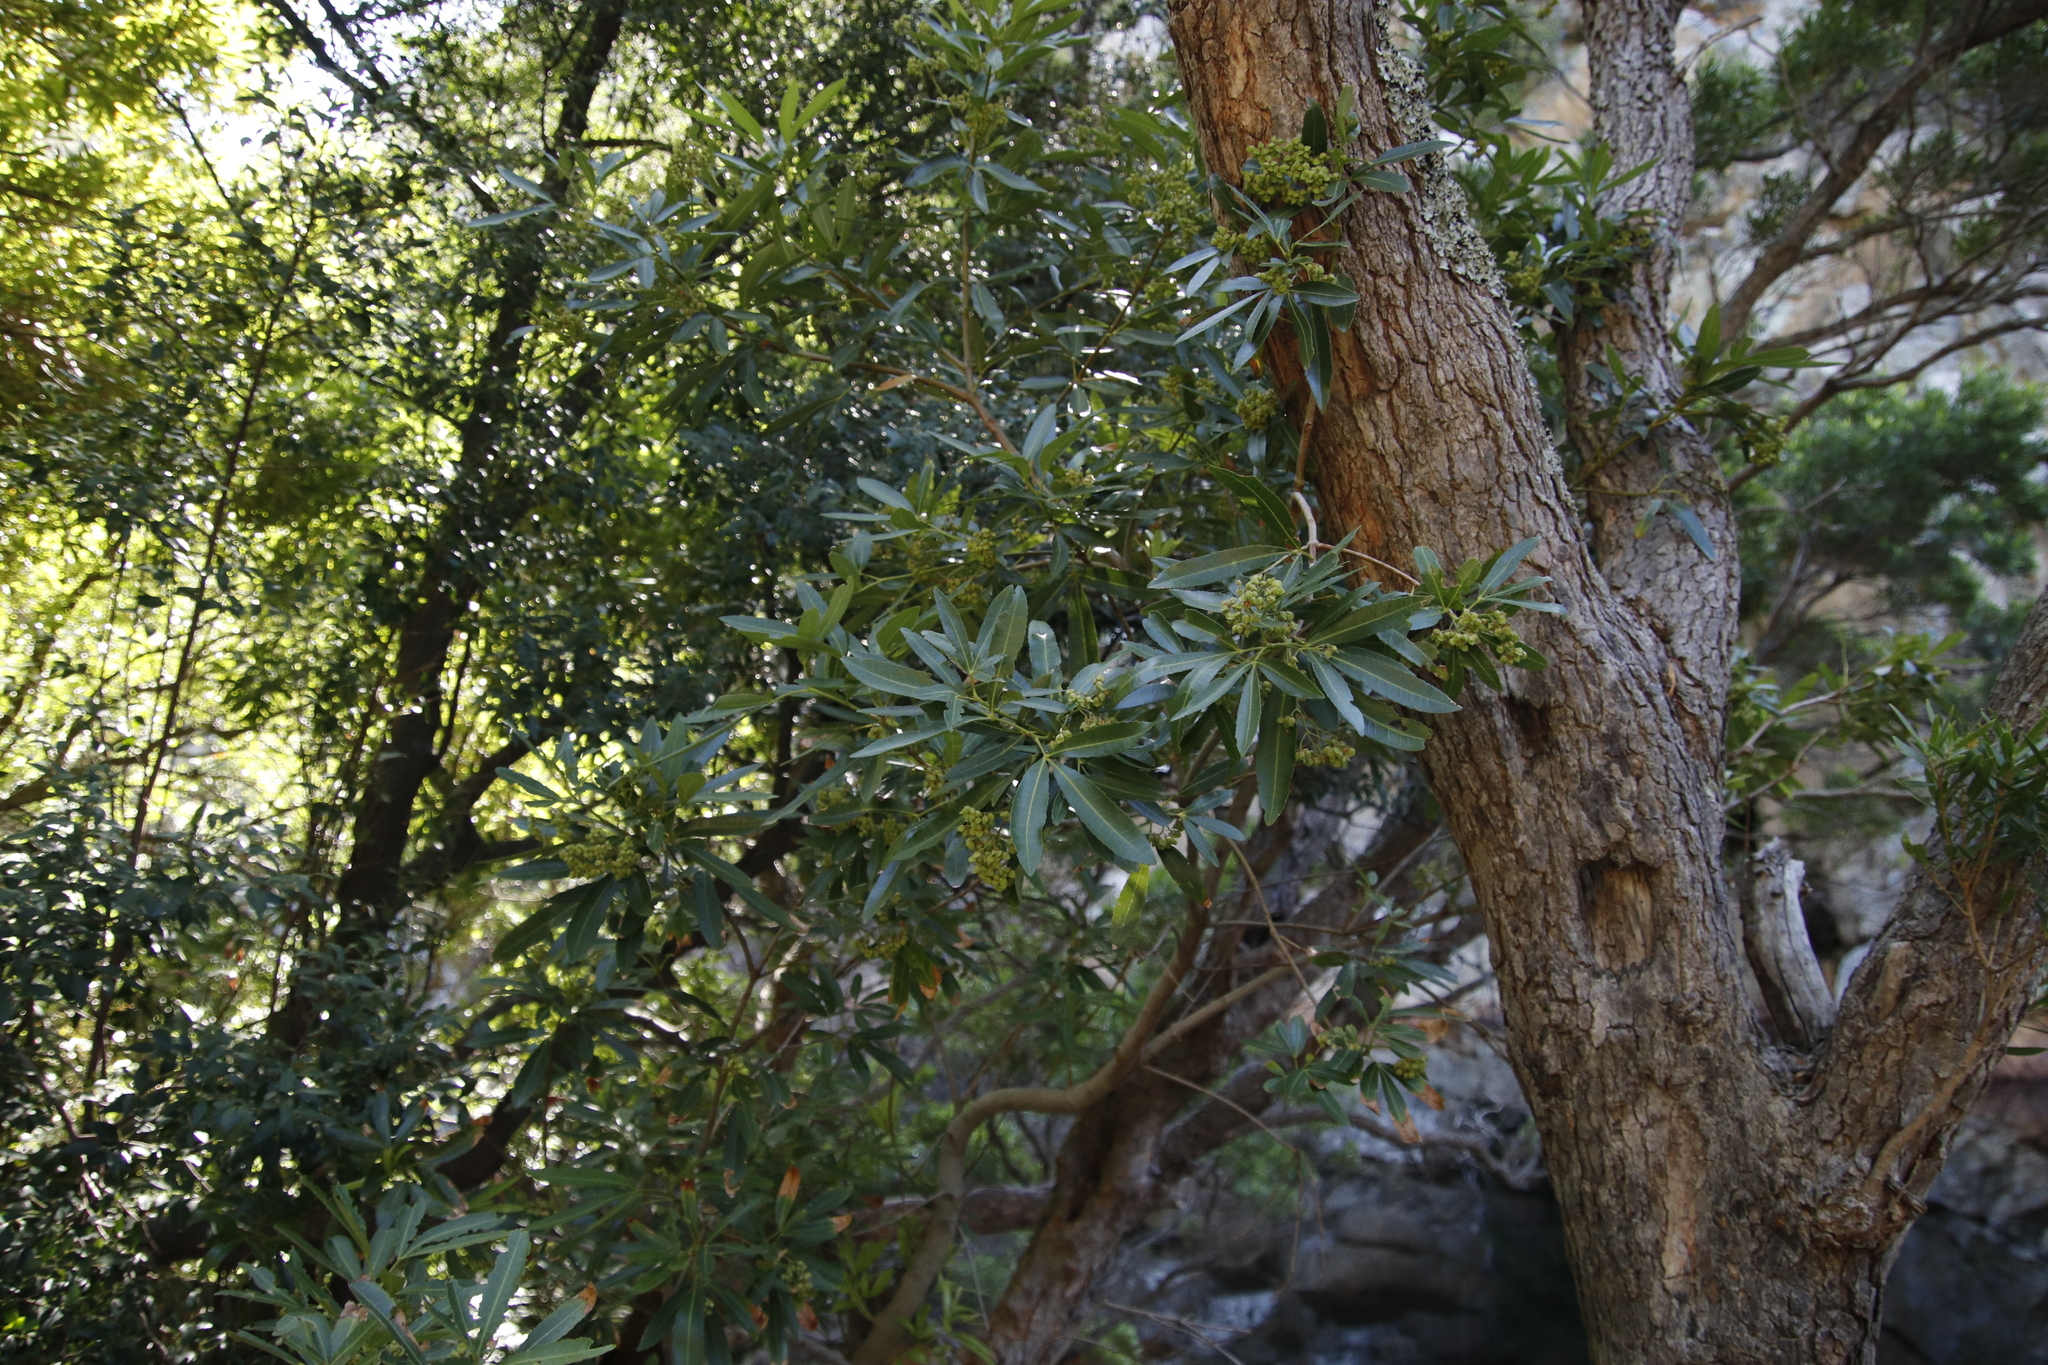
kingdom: Plantae
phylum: Tracheophyta
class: Magnoliopsida
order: Oxalidales
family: Cunoniaceae
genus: Platylophus
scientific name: Platylophus trifoliatus
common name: White alder
